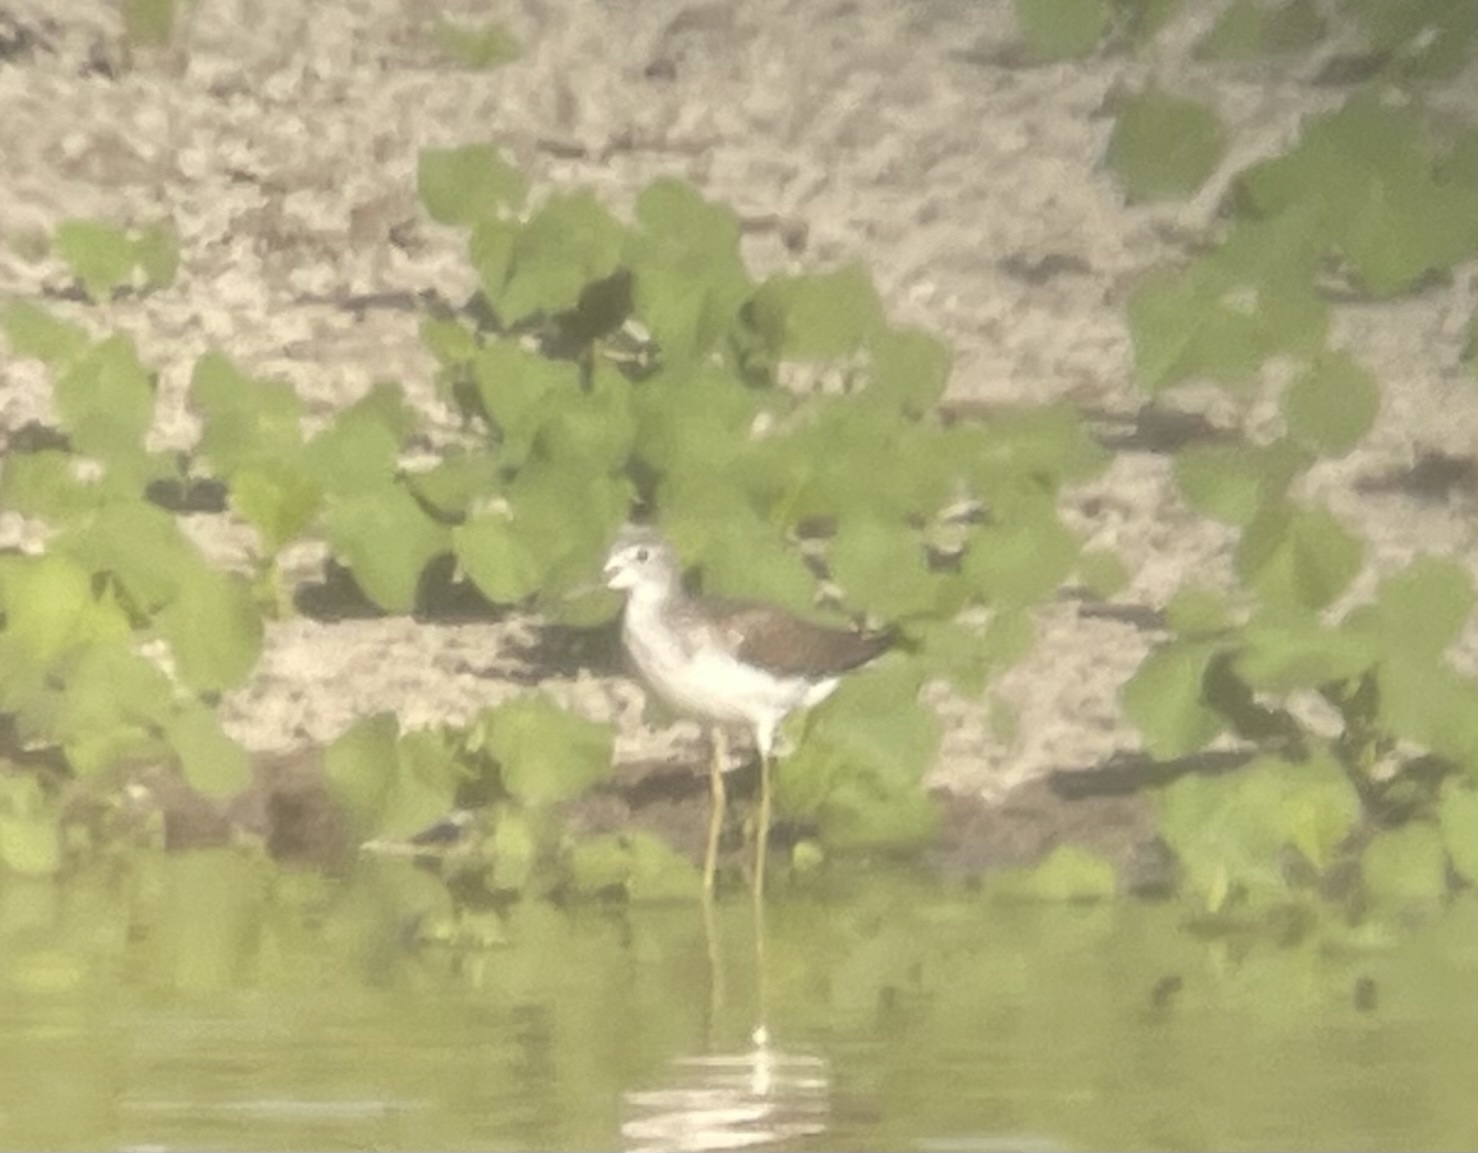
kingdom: Animalia
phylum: Chordata
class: Aves
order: Charadriiformes
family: Scolopacidae
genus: Tringa
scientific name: Tringa nebularia
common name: Common greenshank
